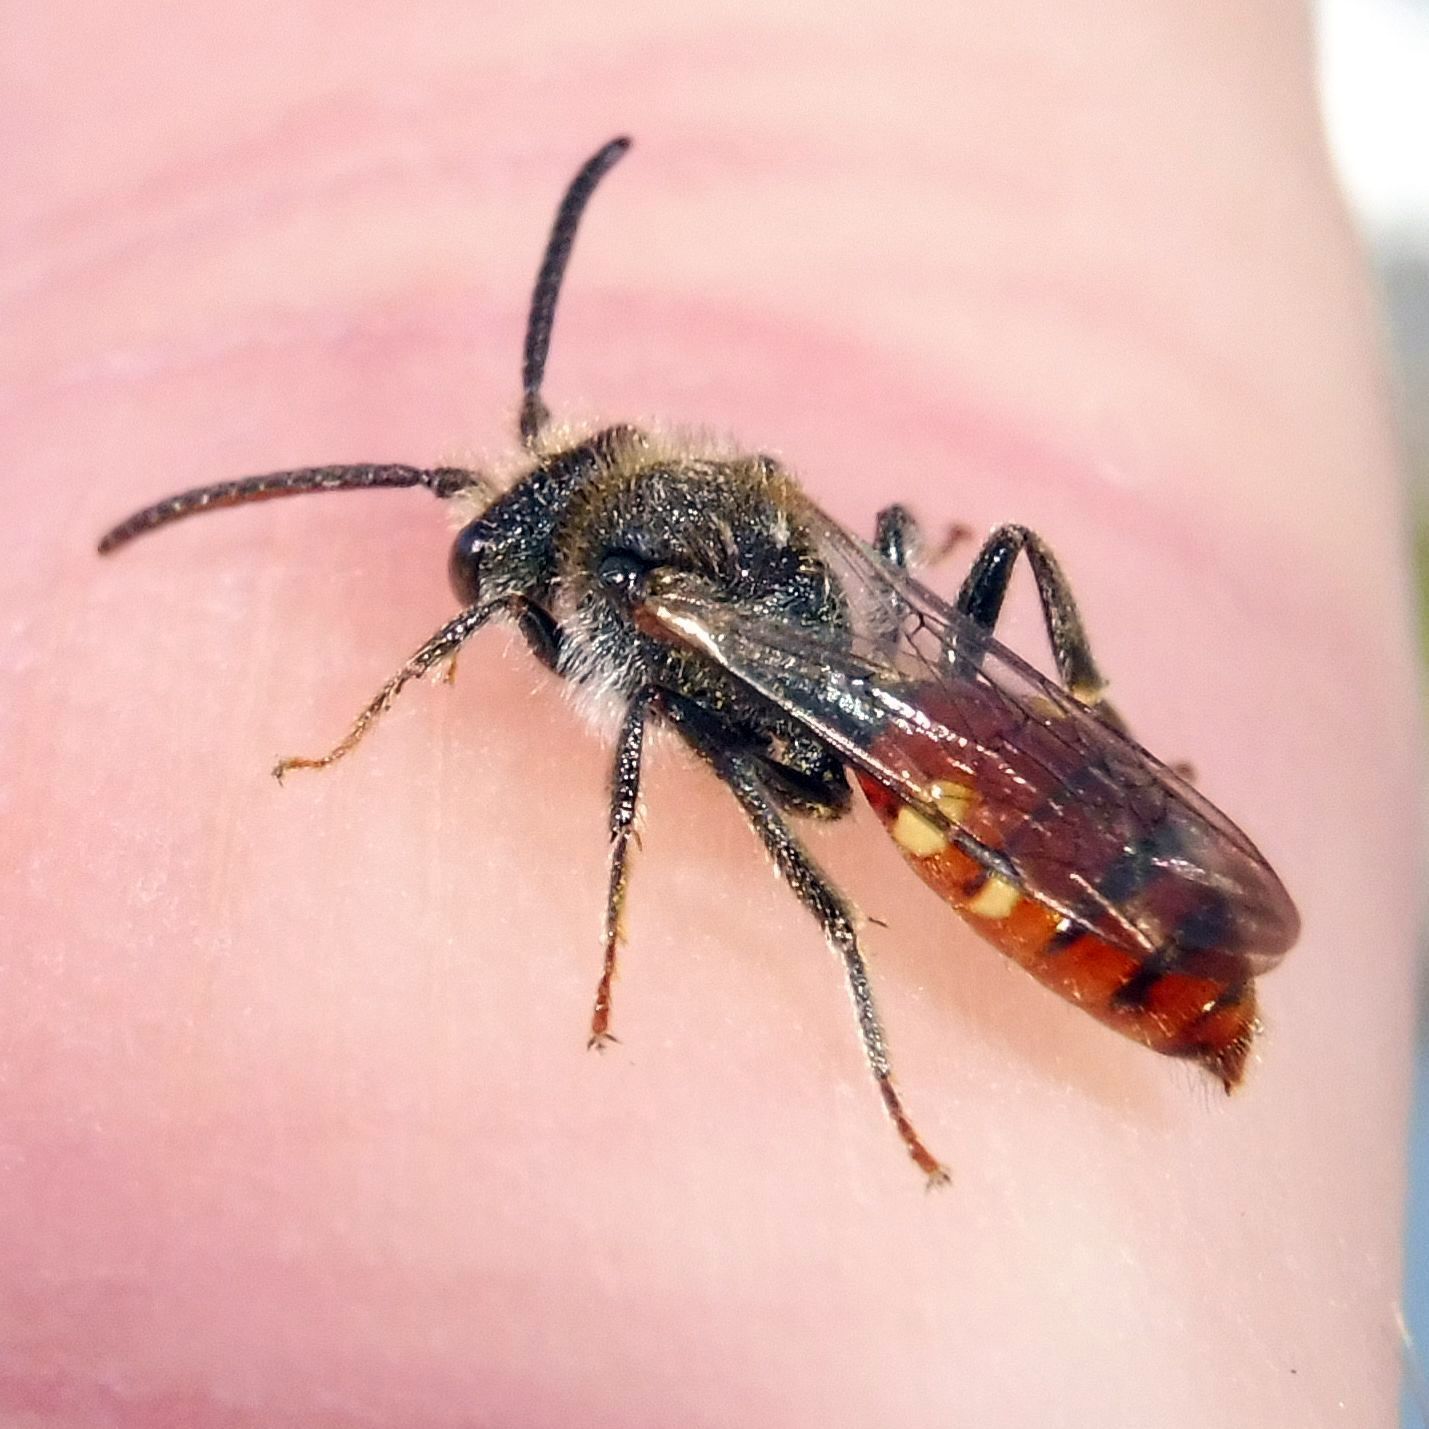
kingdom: Animalia
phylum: Arthropoda
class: Insecta
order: Hymenoptera
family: Apidae
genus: Nomada
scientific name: Nomada fabriciana
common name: Fabricius' nomad bee
